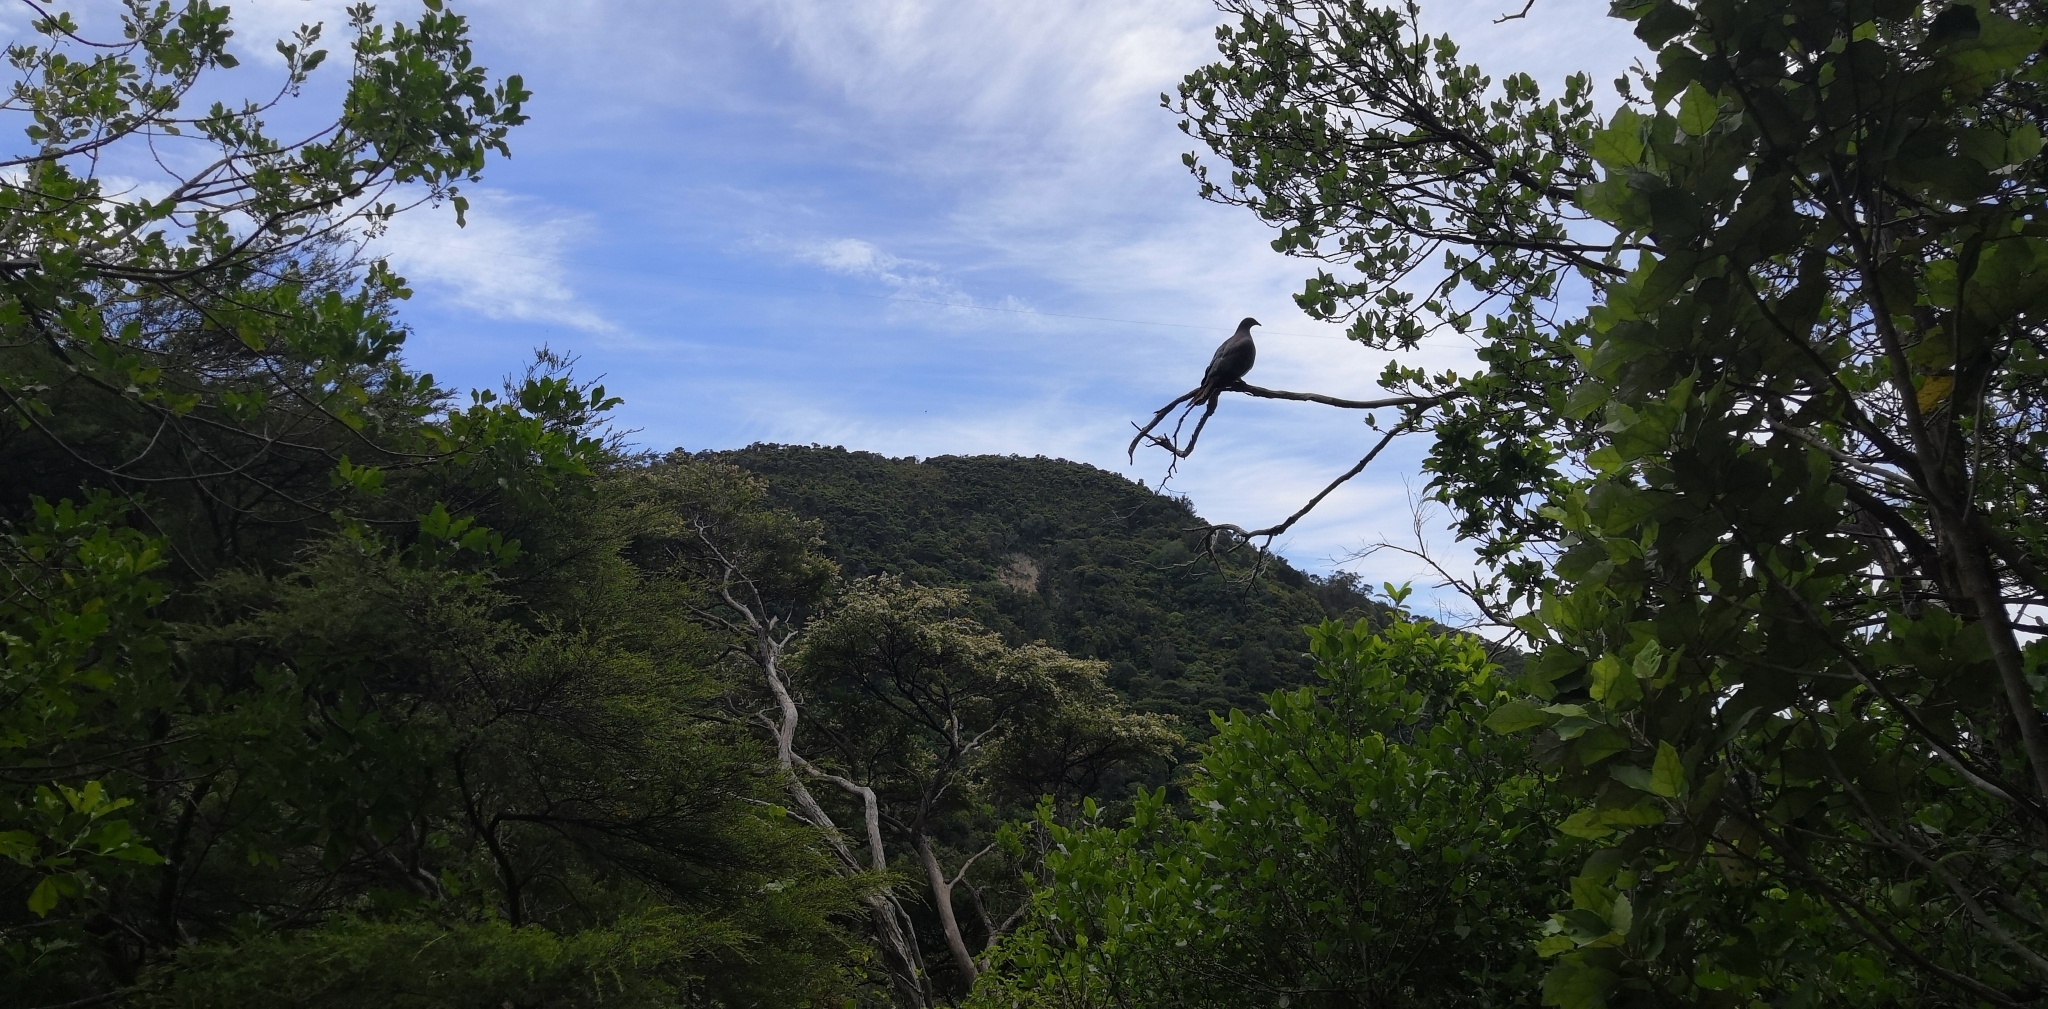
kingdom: Animalia
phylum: Chordata
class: Aves
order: Columbiformes
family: Columbidae
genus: Hemiphaga
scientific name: Hemiphaga novaeseelandiae
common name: New zealand pigeon
